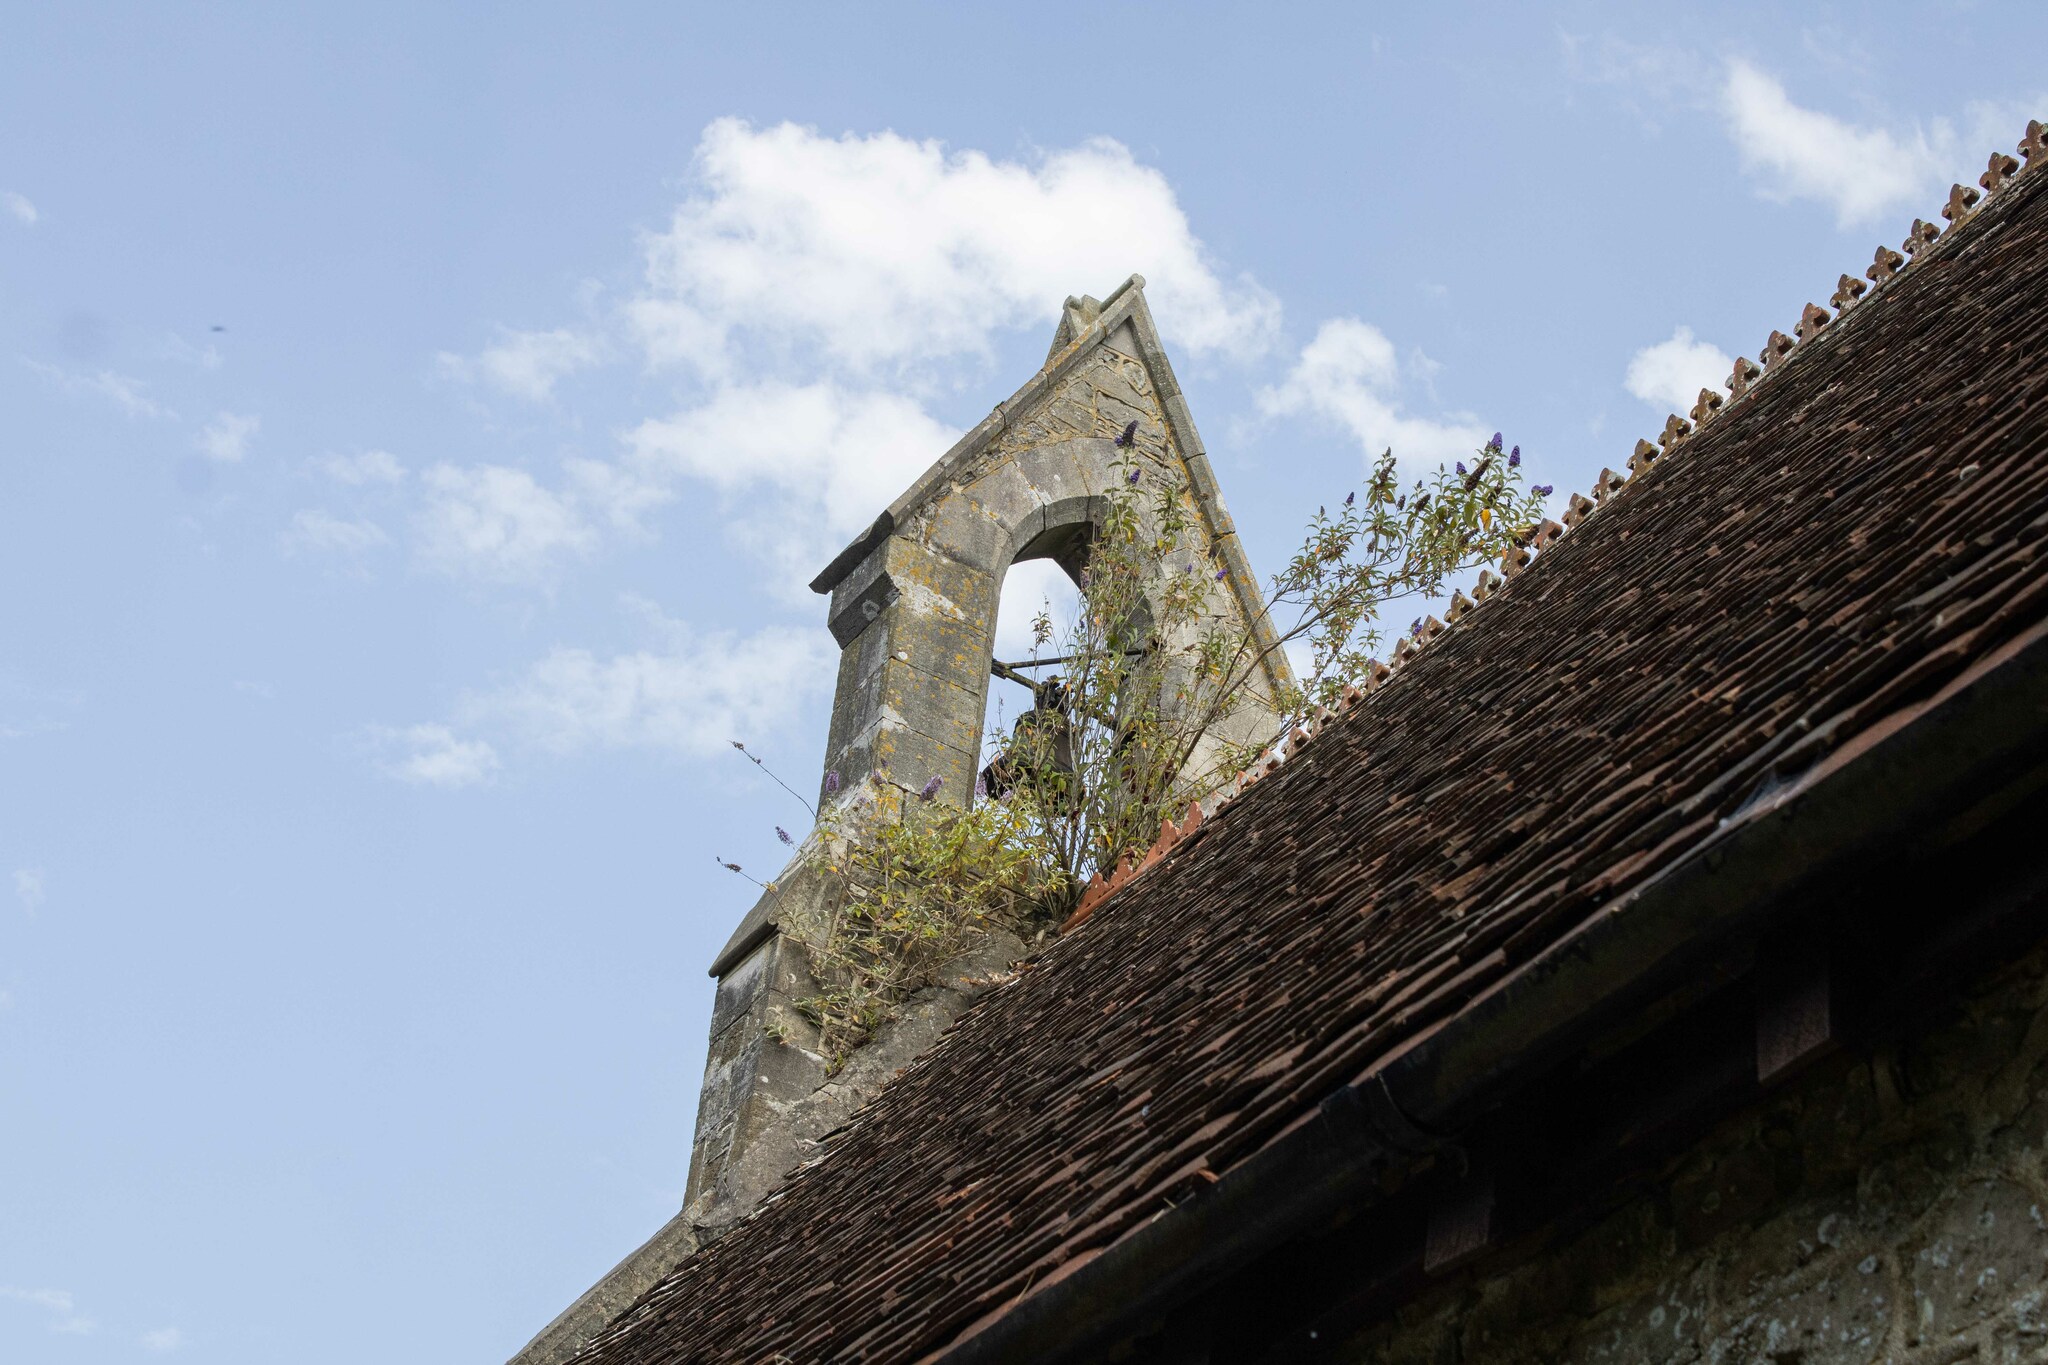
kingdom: Plantae
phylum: Tracheophyta
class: Magnoliopsida
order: Lamiales
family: Scrophulariaceae
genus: Buddleja
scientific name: Buddleja davidii
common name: Butterfly-bush
